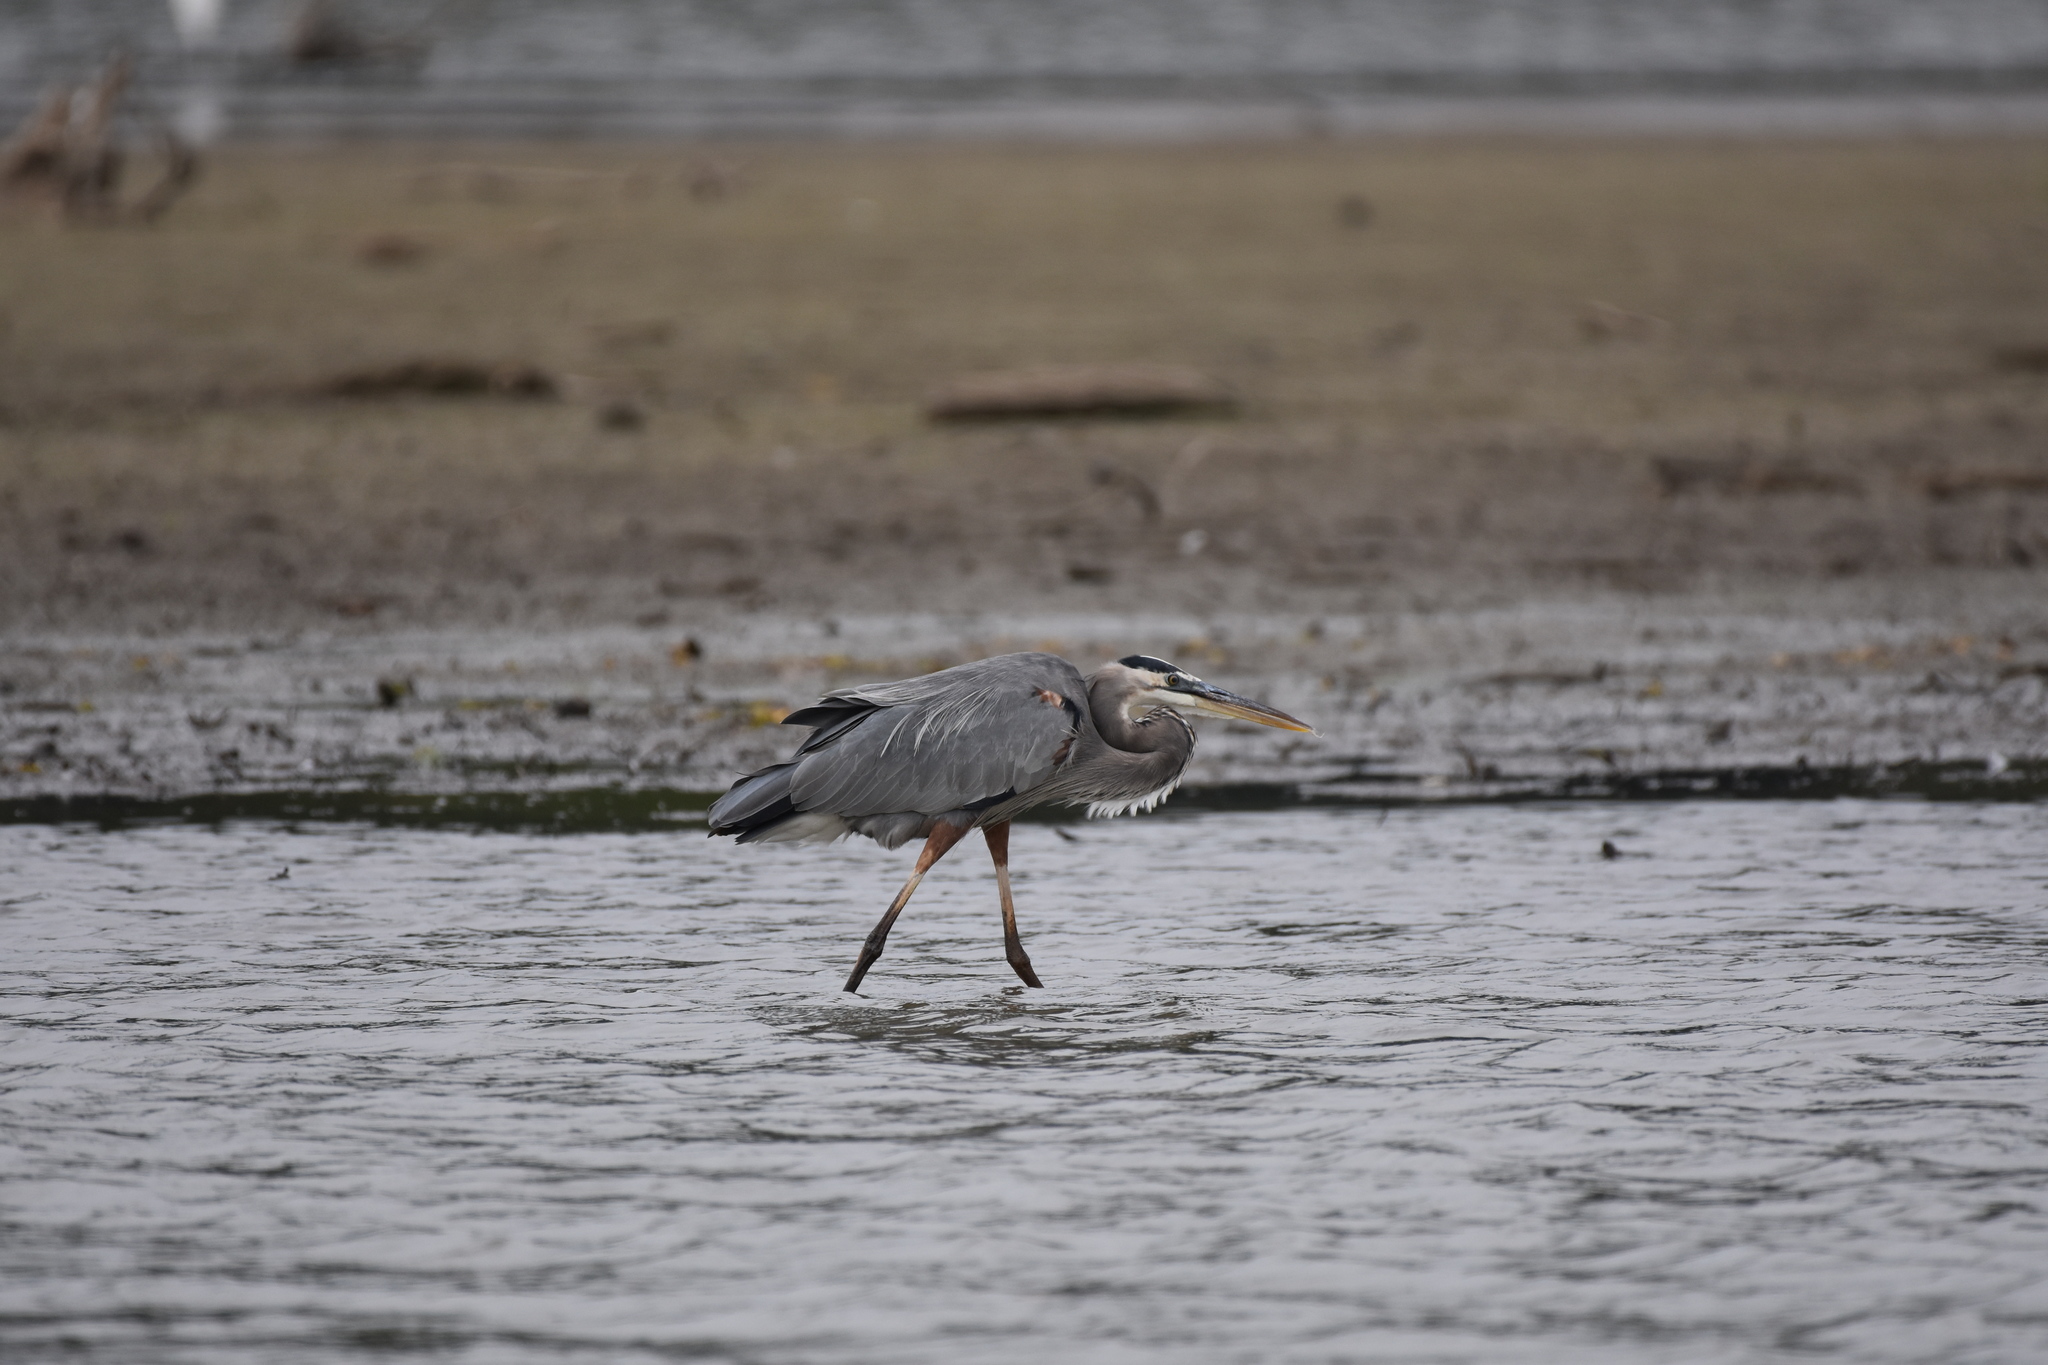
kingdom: Animalia
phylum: Chordata
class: Aves
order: Pelecaniformes
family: Ardeidae
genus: Ardea
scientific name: Ardea herodias
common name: Great blue heron
